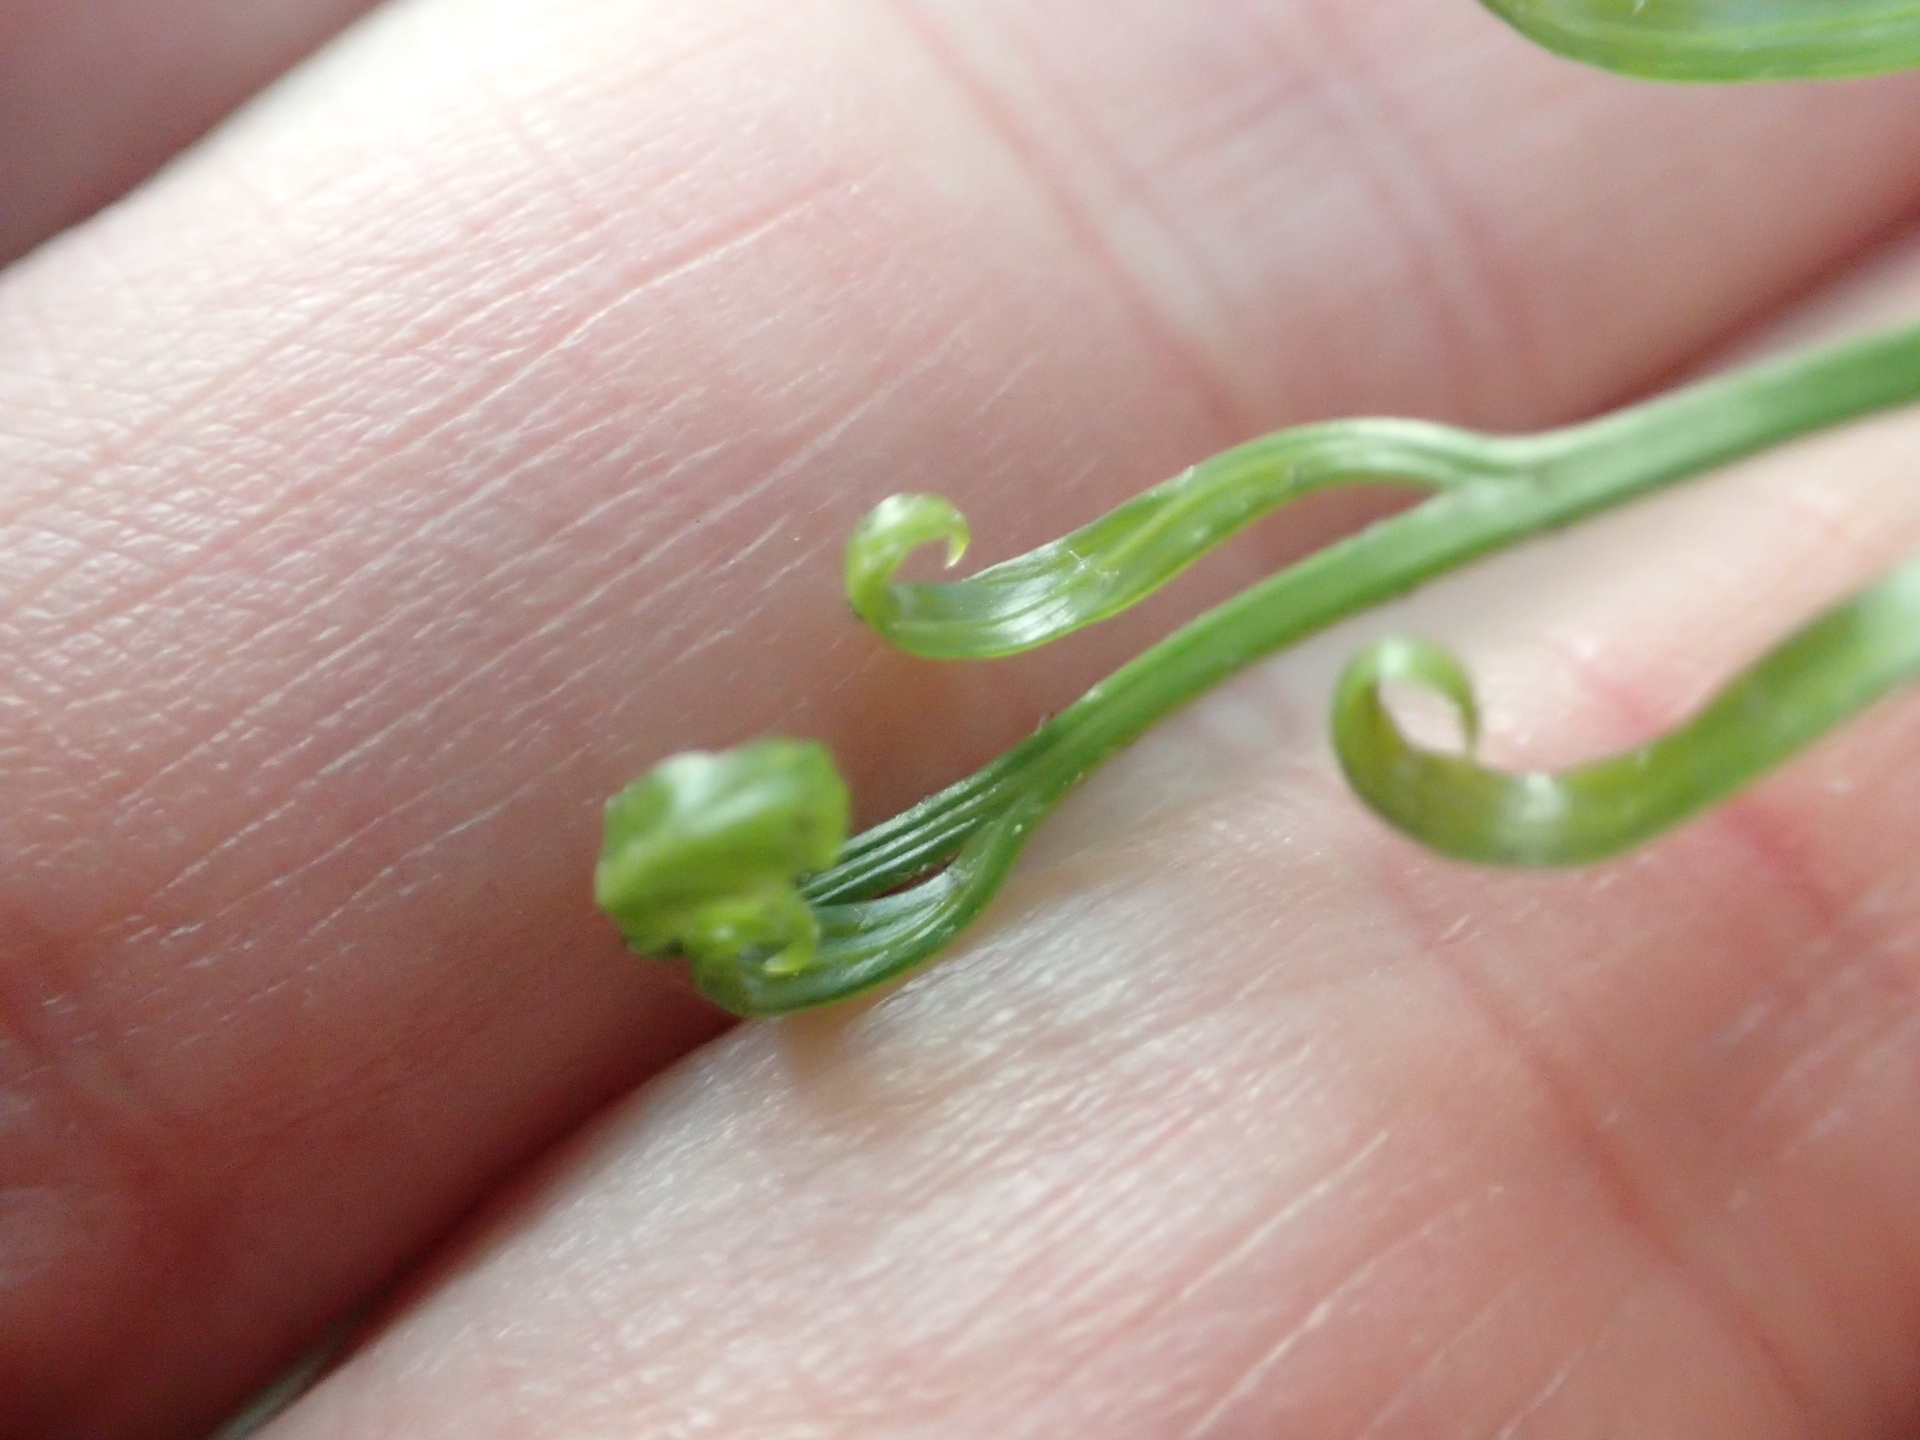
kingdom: Plantae
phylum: Tracheophyta
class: Polypodiopsida
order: Polypodiales
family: Aspleniaceae
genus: Asplenium
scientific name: Asplenium flaccidum
